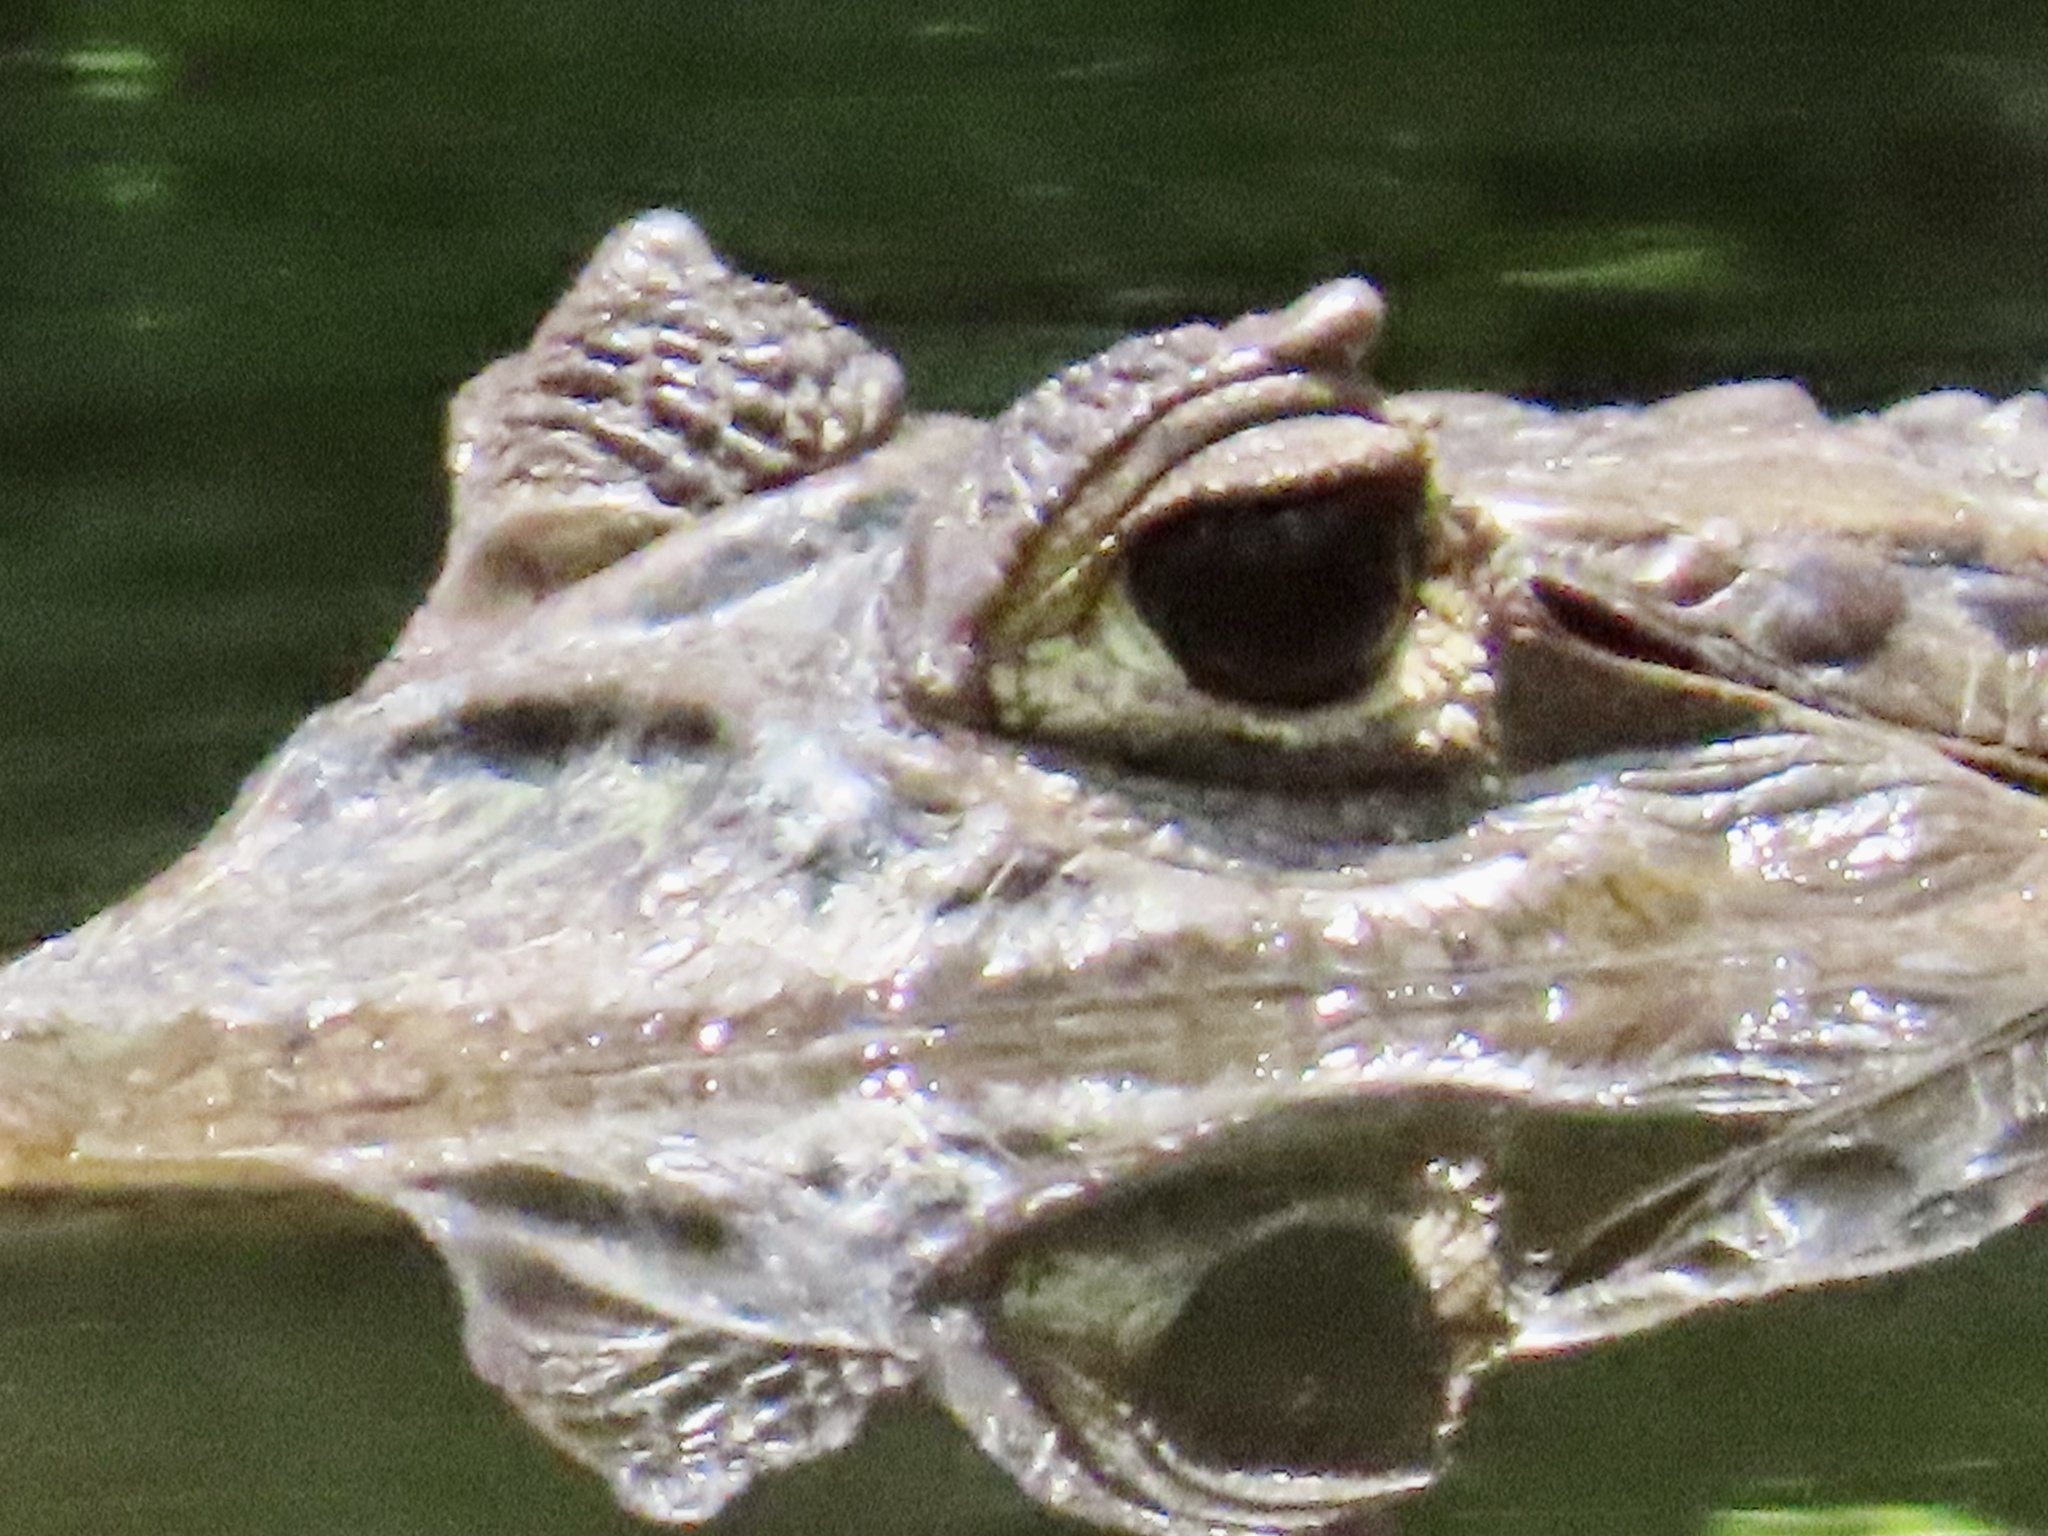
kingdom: Animalia
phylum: Chordata
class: Crocodylia
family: Alligatoridae
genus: Caiman
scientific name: Caiman crocodilus
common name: Common caiman
